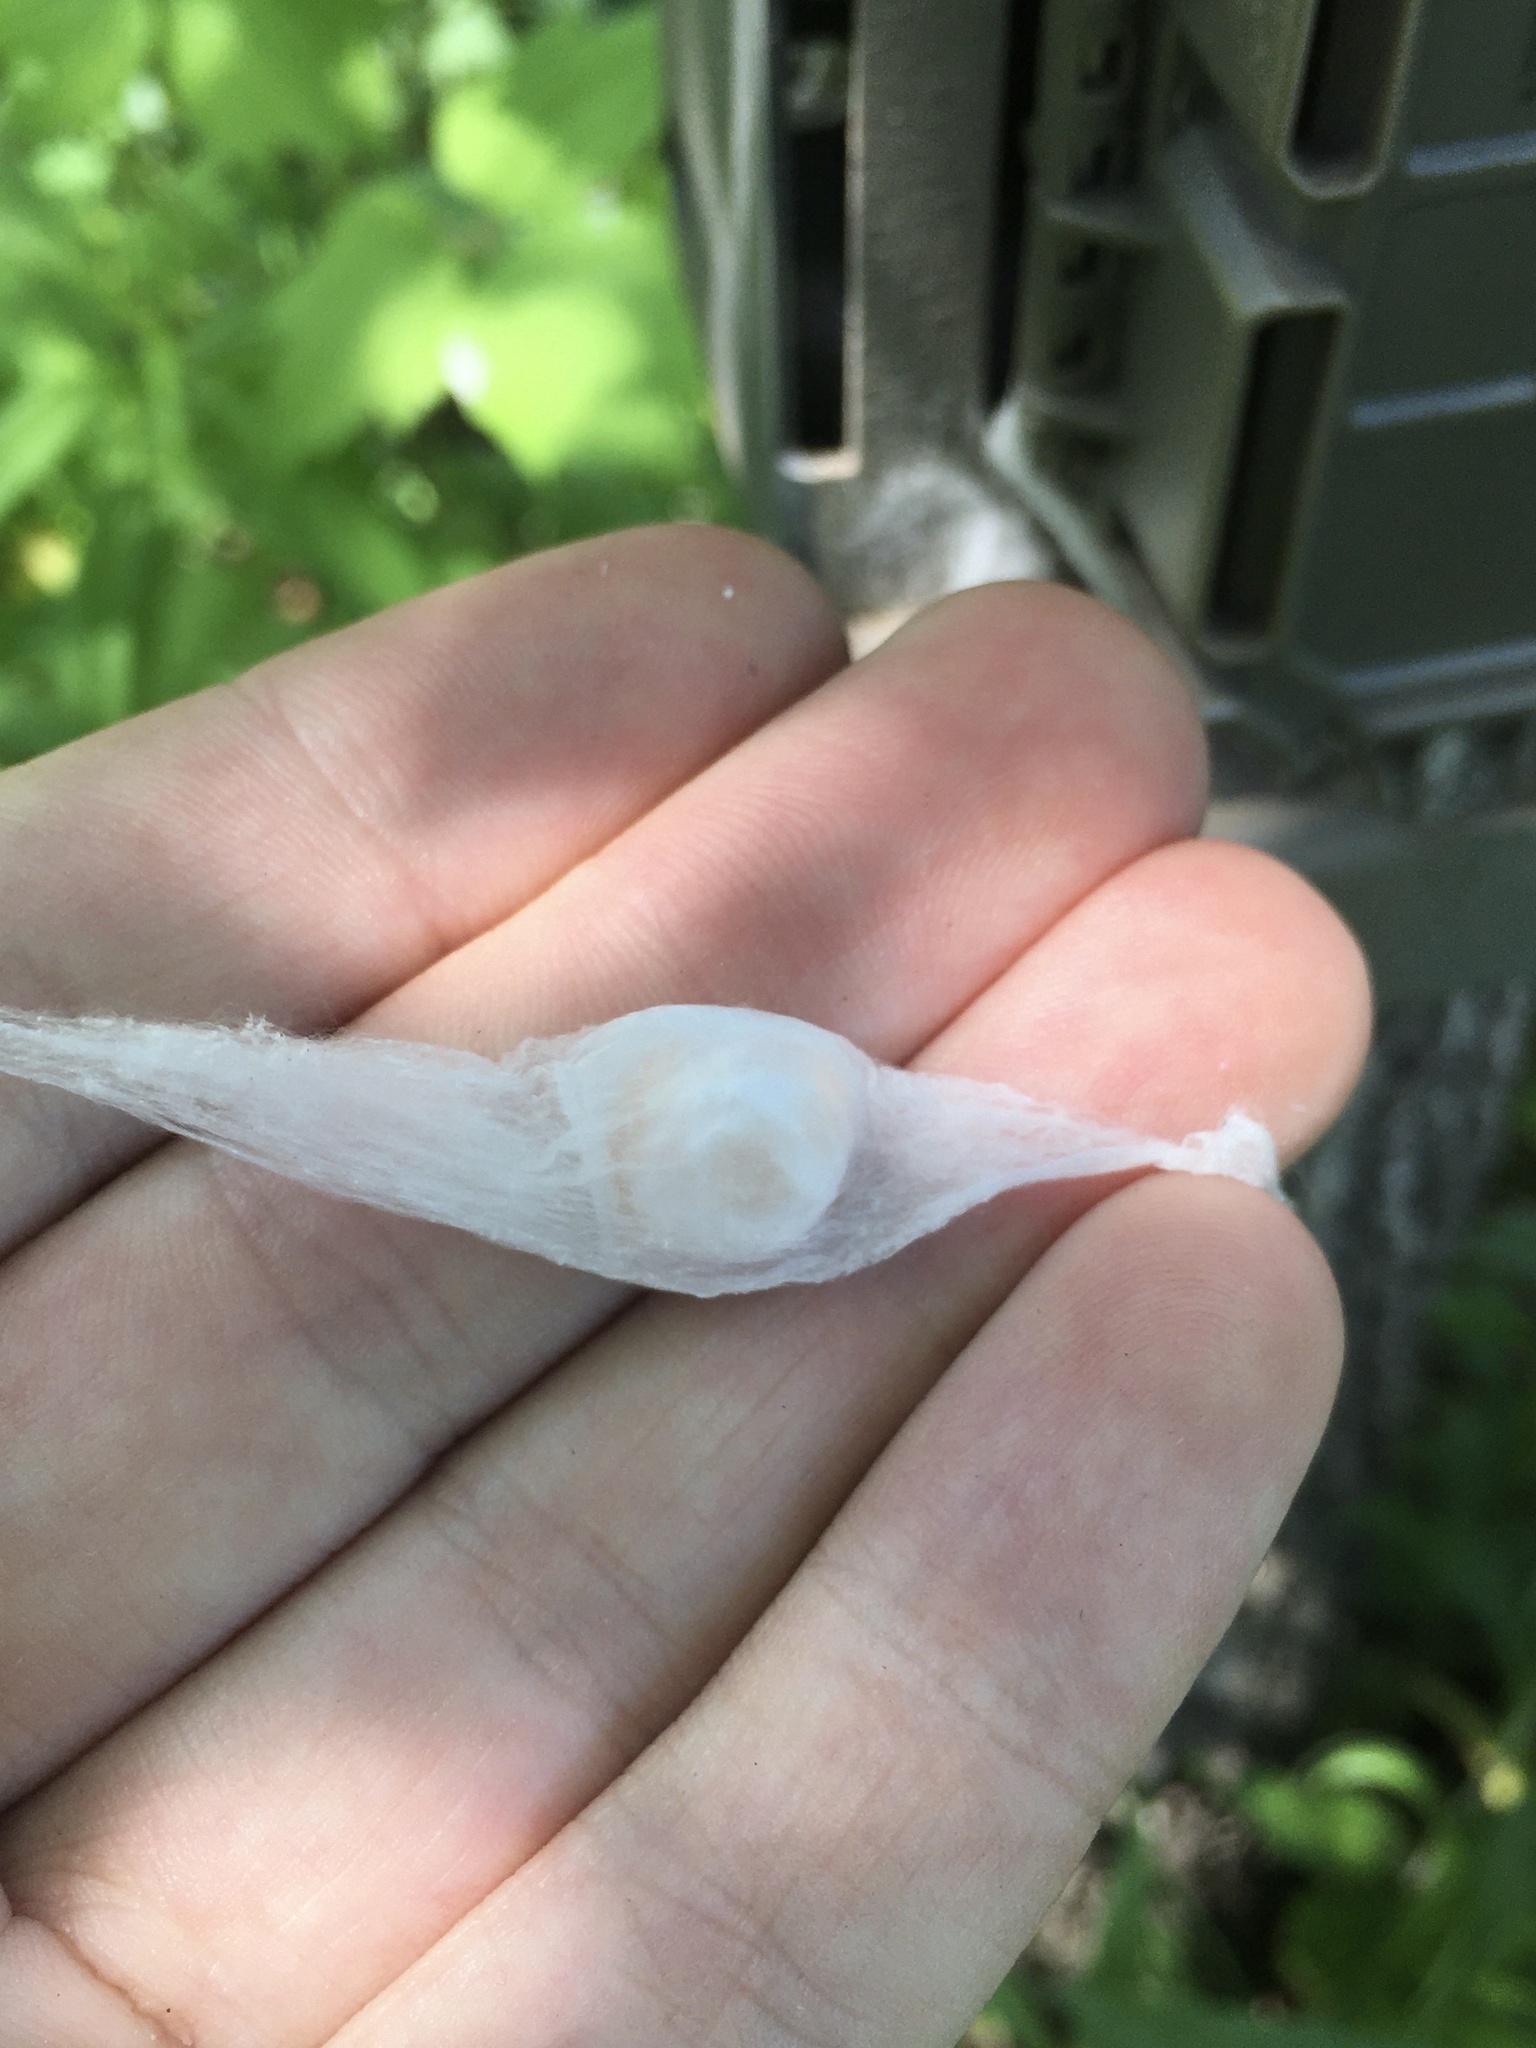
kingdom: Animalia
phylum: Arthropoda
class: Arachnida
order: Araneae
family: Salticidae
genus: Phidippus
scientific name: Phidippus audax
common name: Bold jumper
